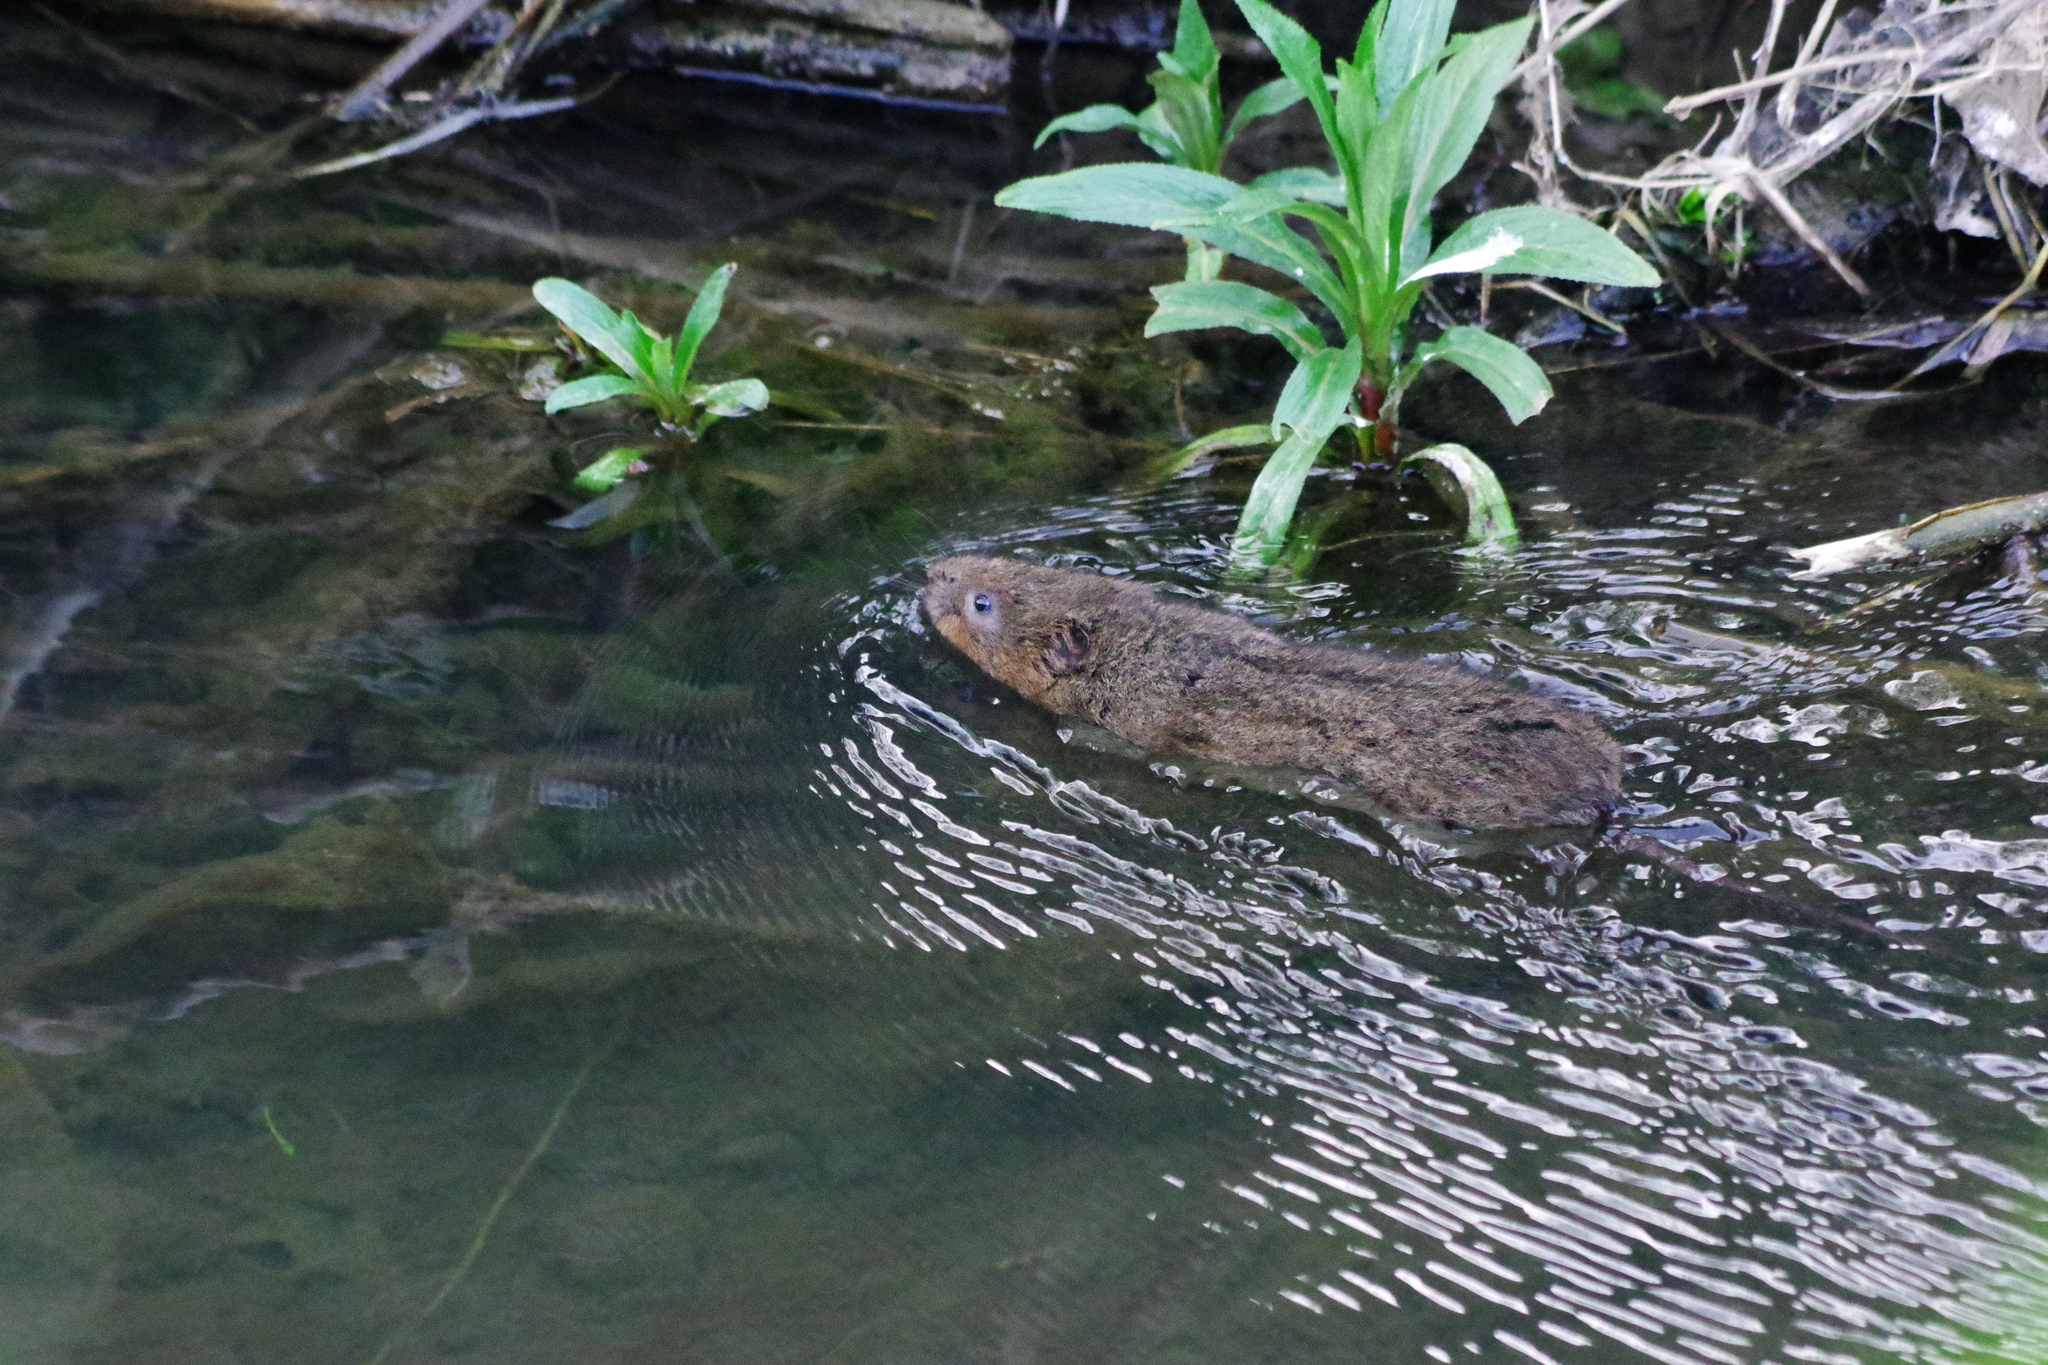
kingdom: Animalia
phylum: Chordata
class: Mammalia
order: Rodentia
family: Cricetidae
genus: Arvicola
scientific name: Arvicola amphibius
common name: European water vole
